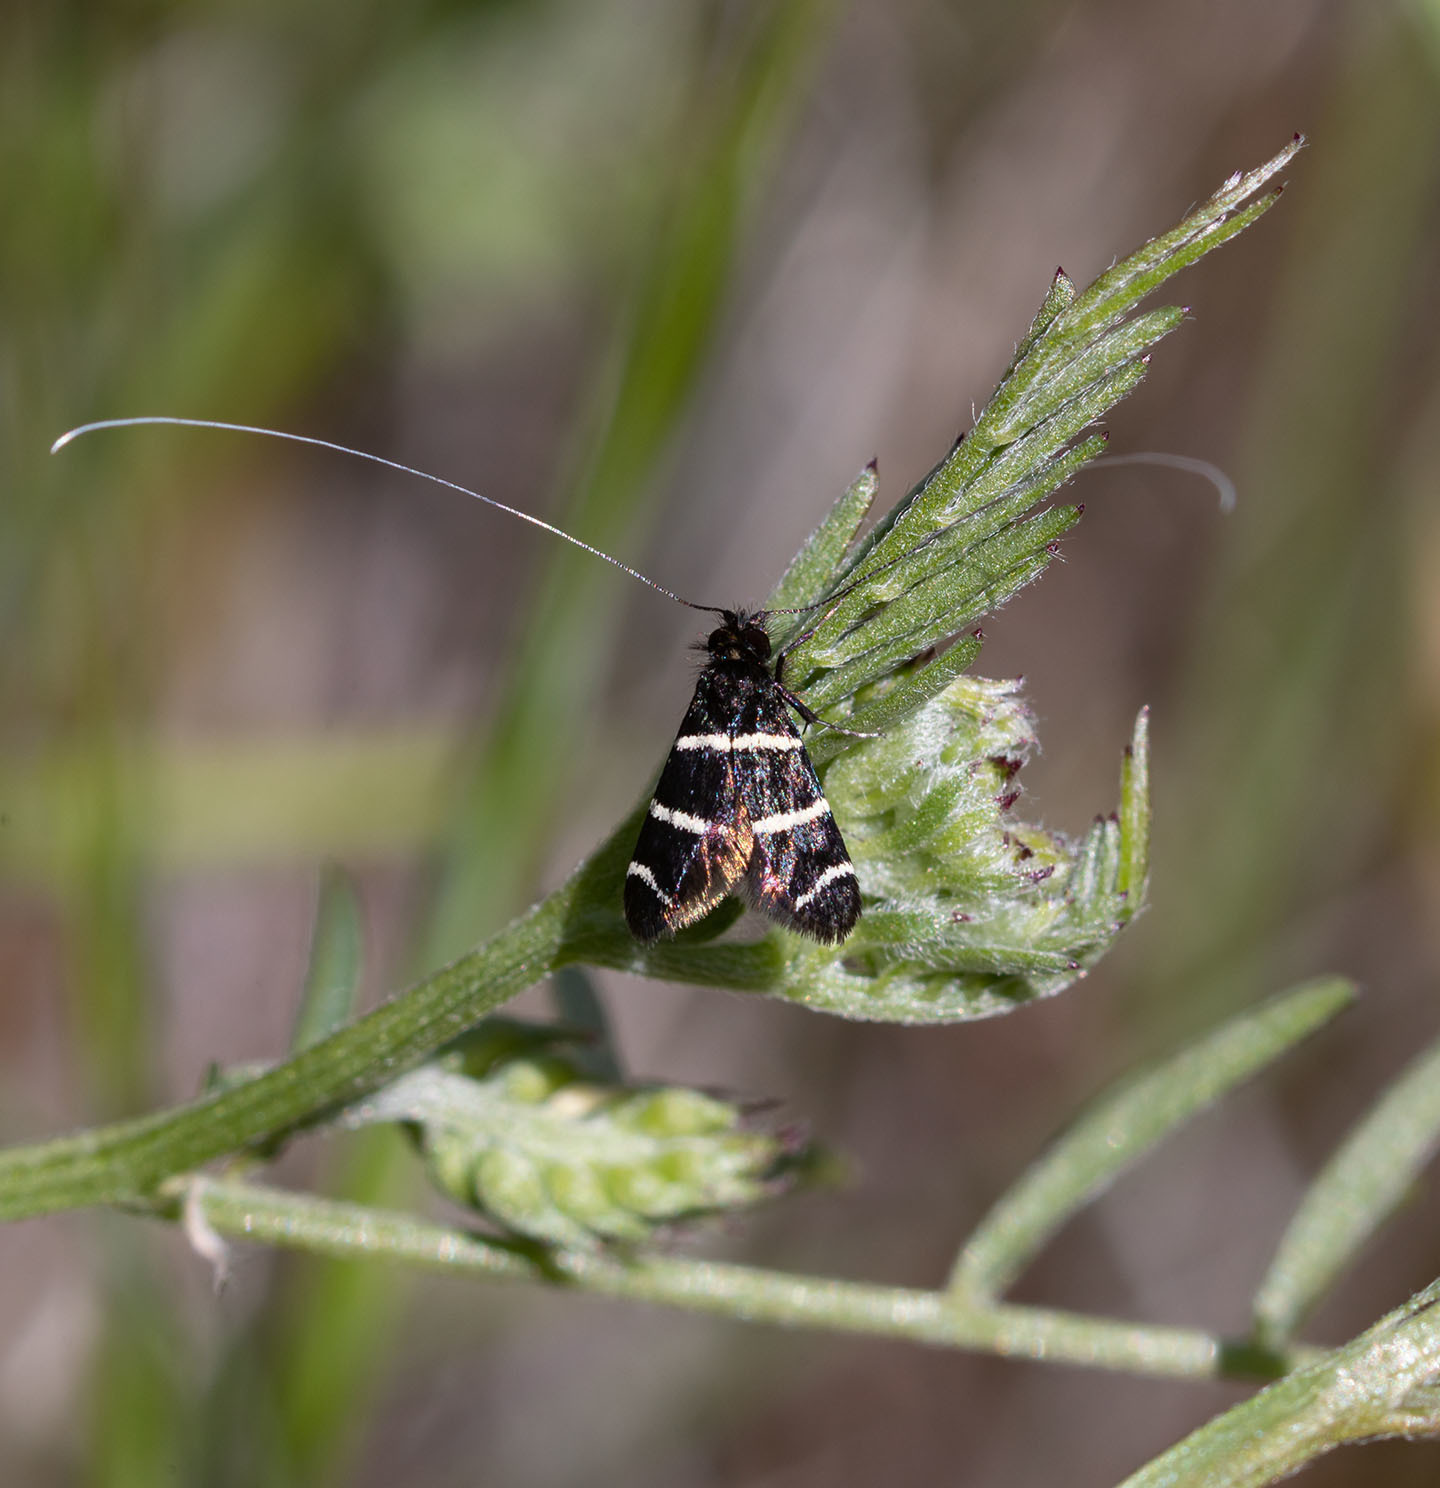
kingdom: Animalia
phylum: Arthropoda
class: Insecta
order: Lepidoptera
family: Adelidae
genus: Adela
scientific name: Adela trigrapha
